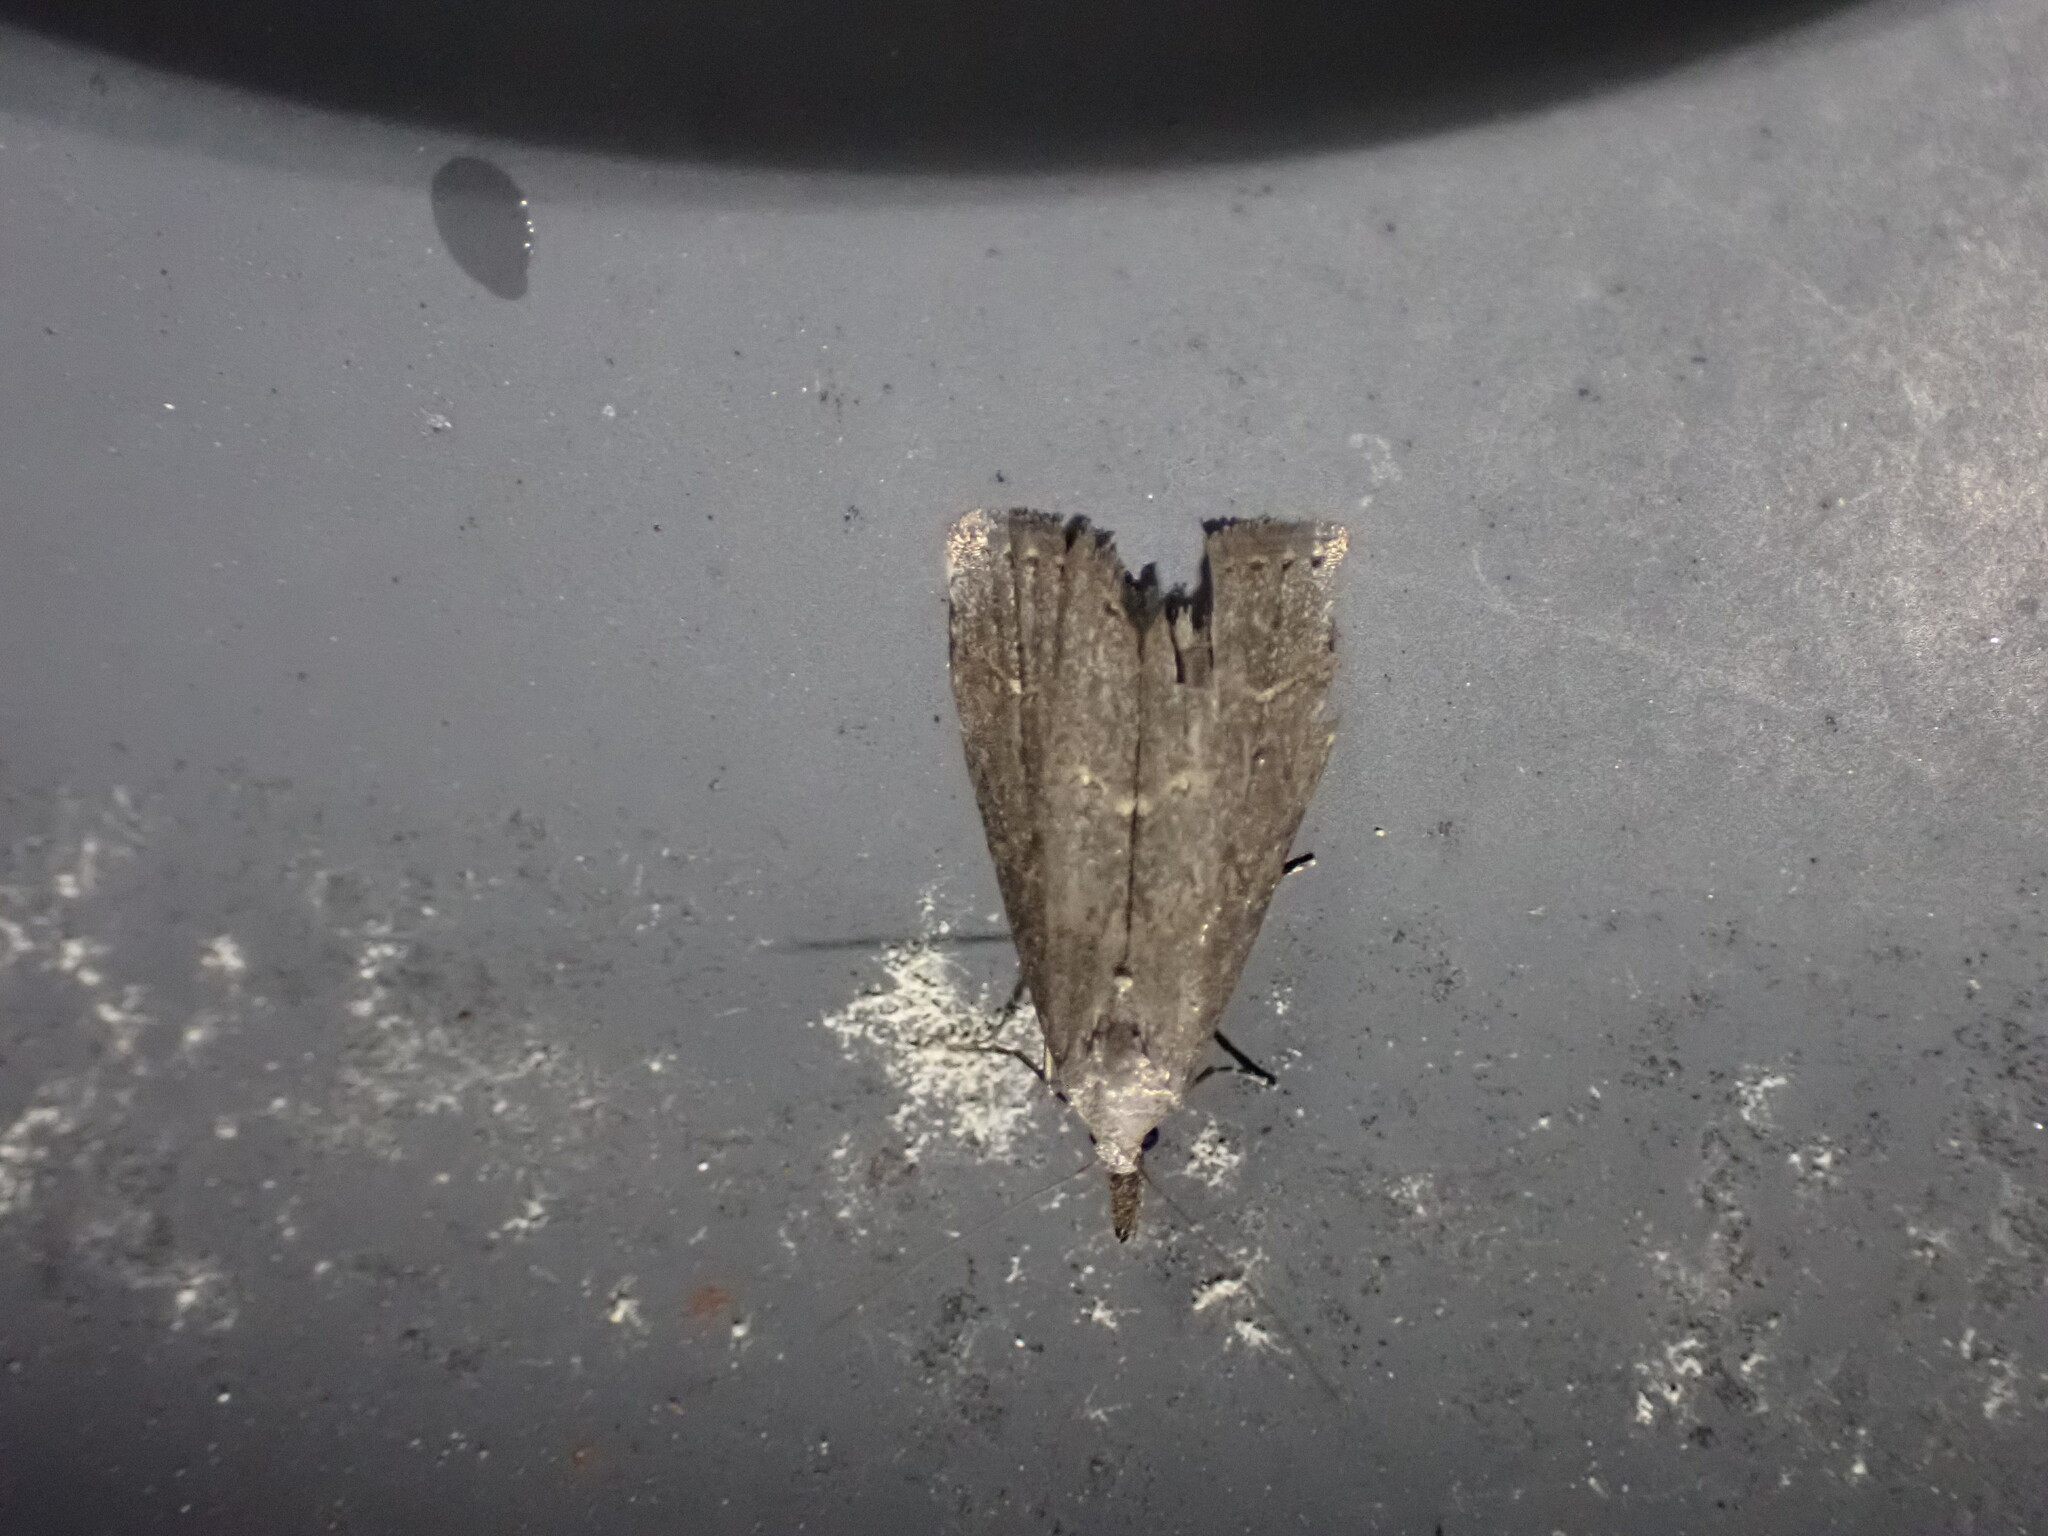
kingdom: Animalia
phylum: Arthropoda
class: Insecta
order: Lepidoptera
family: Erebidae
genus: Schrankia
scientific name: Schrankia costaestrigalis
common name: Pinion-streaked snout
